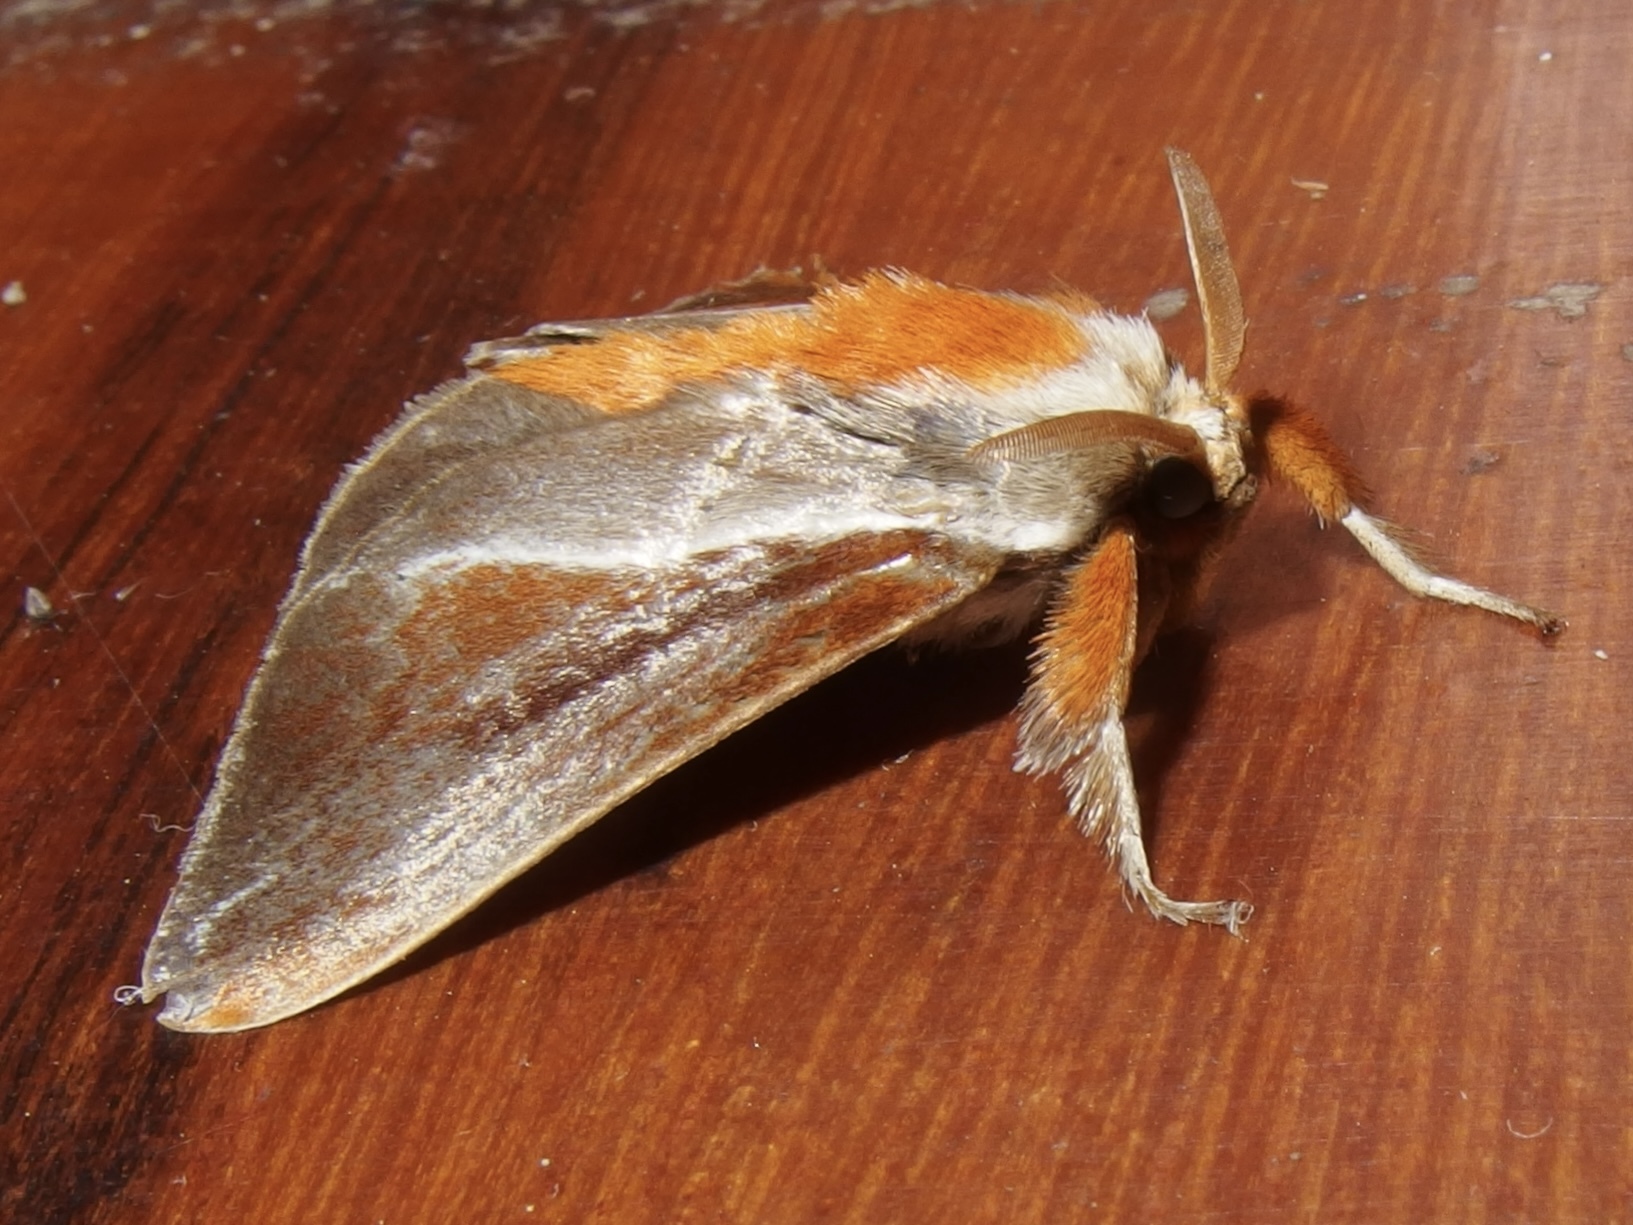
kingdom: Animalia
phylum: Arthropoda
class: Insecta
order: Lepidoptera
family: Limacodidae
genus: Epiperola
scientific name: Epiperola grandiosa
